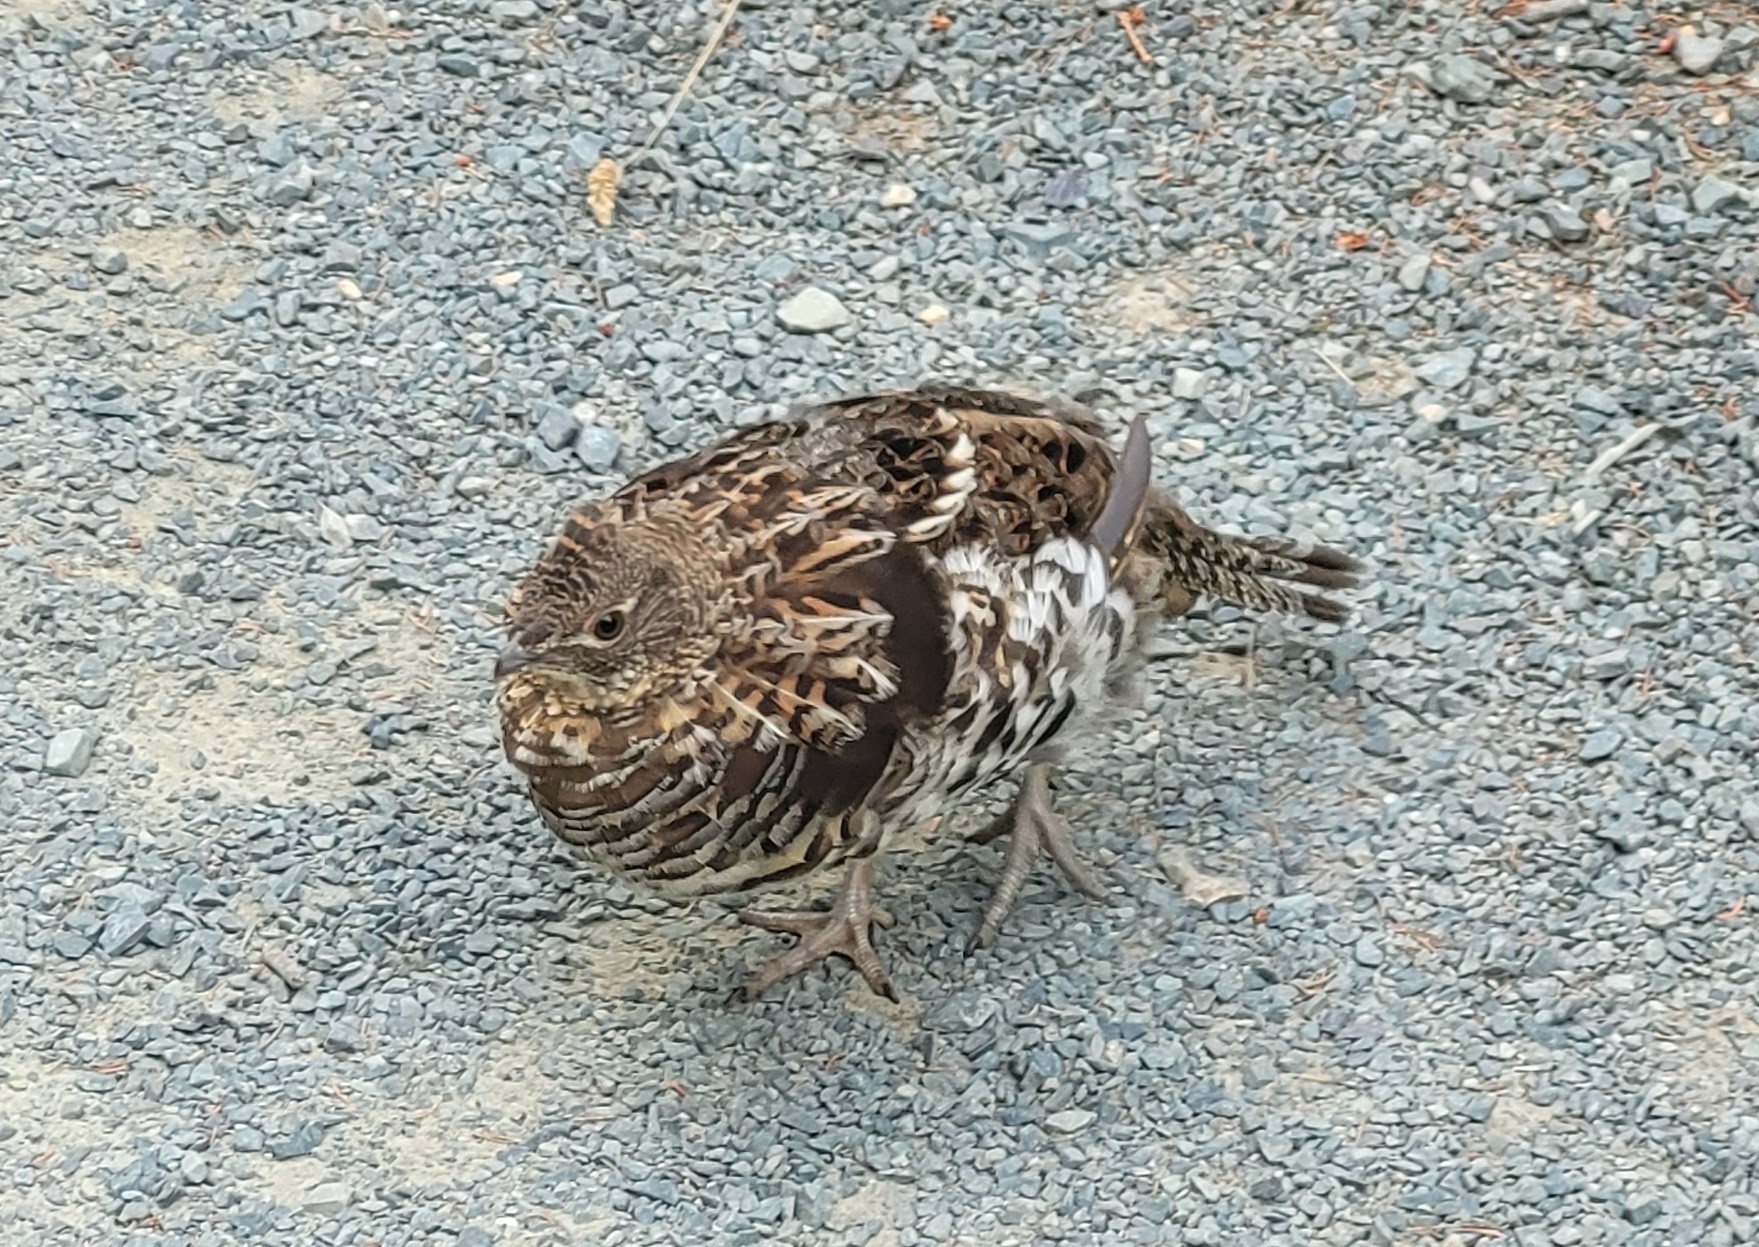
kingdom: Animalia
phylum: Chordata
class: Aves
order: Galliformes
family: Phasianidae
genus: Bonasa
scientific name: Bonasa umbellus
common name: Ruffed grouse
